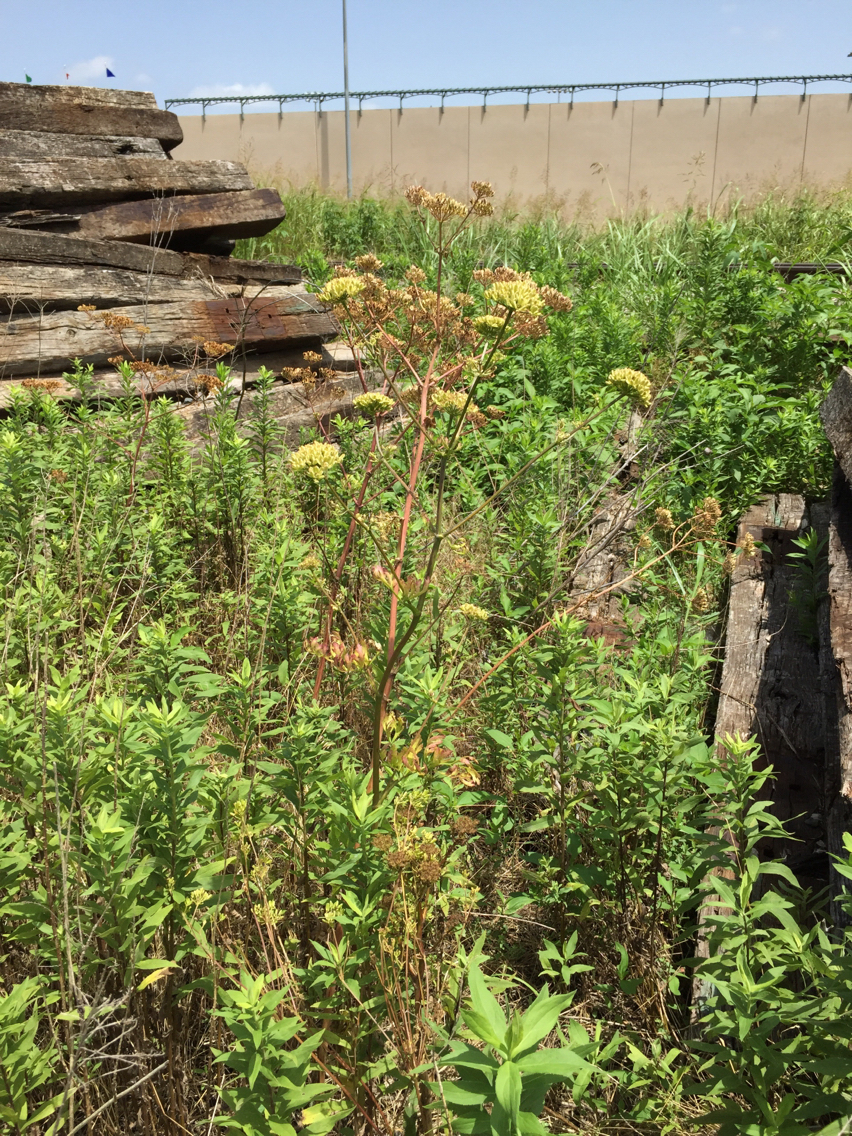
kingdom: Plantae
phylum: Tracheophyta
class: Magnoliopsida
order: Apiales
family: Apiaceae
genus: Polytaenia
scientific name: Polytaenia texana
